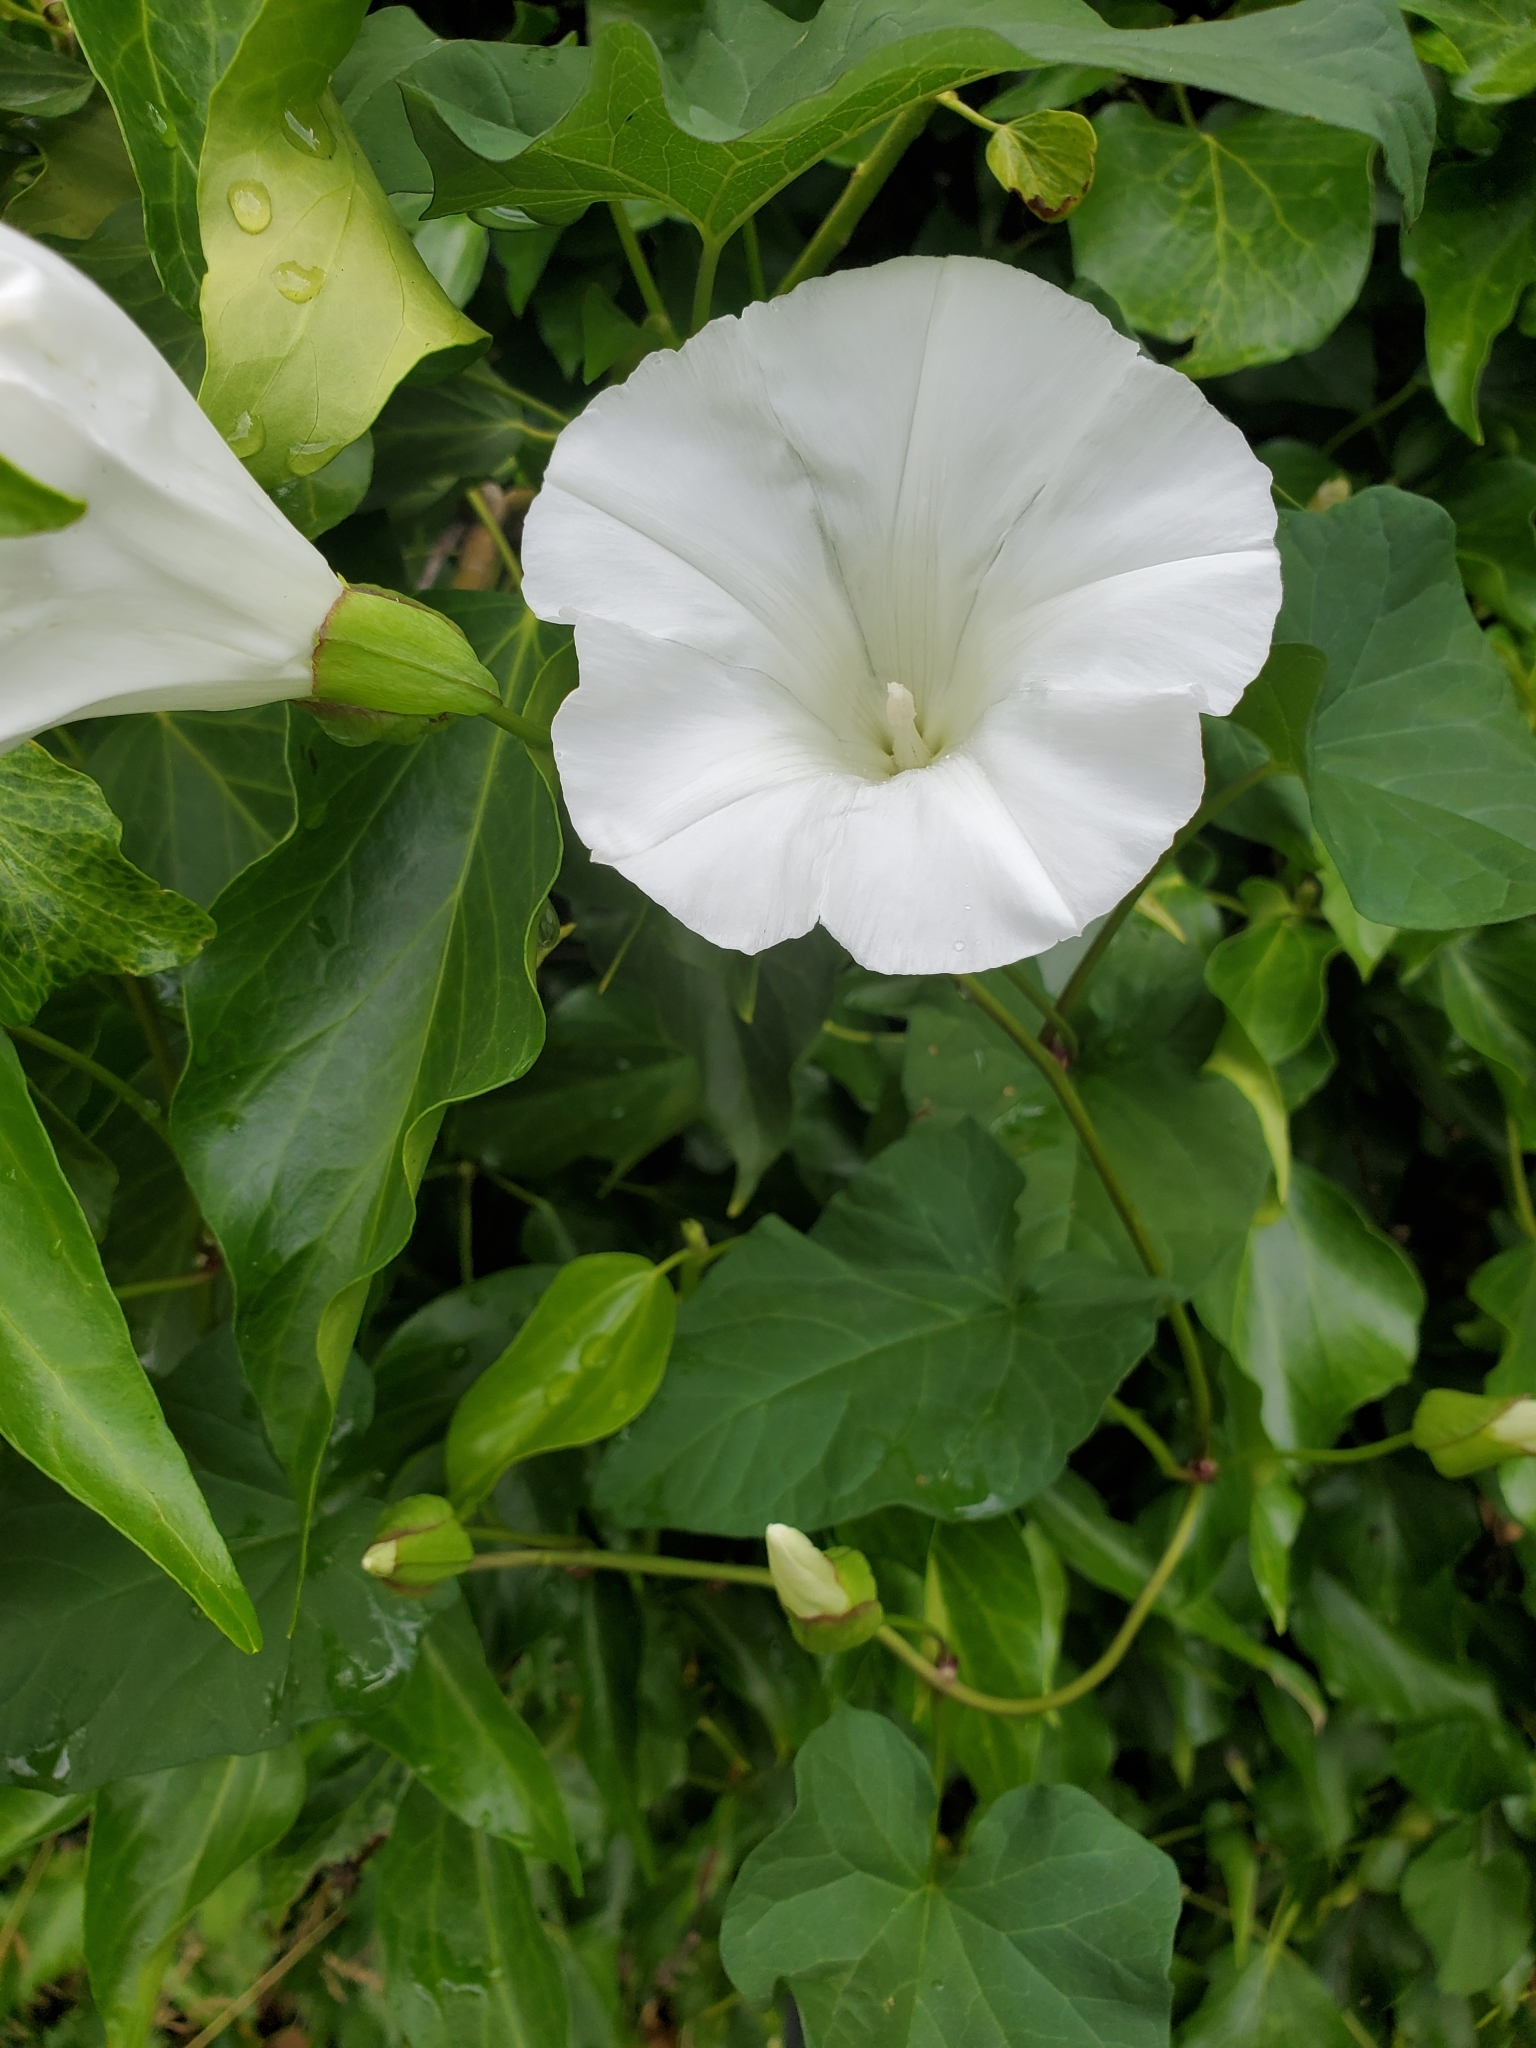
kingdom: Plantae
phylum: Tracheophyta
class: Magnoliopsida
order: Solanales
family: Convolvulaceae
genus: Calystegia
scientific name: Calystegia silvatica
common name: Large bindweed
